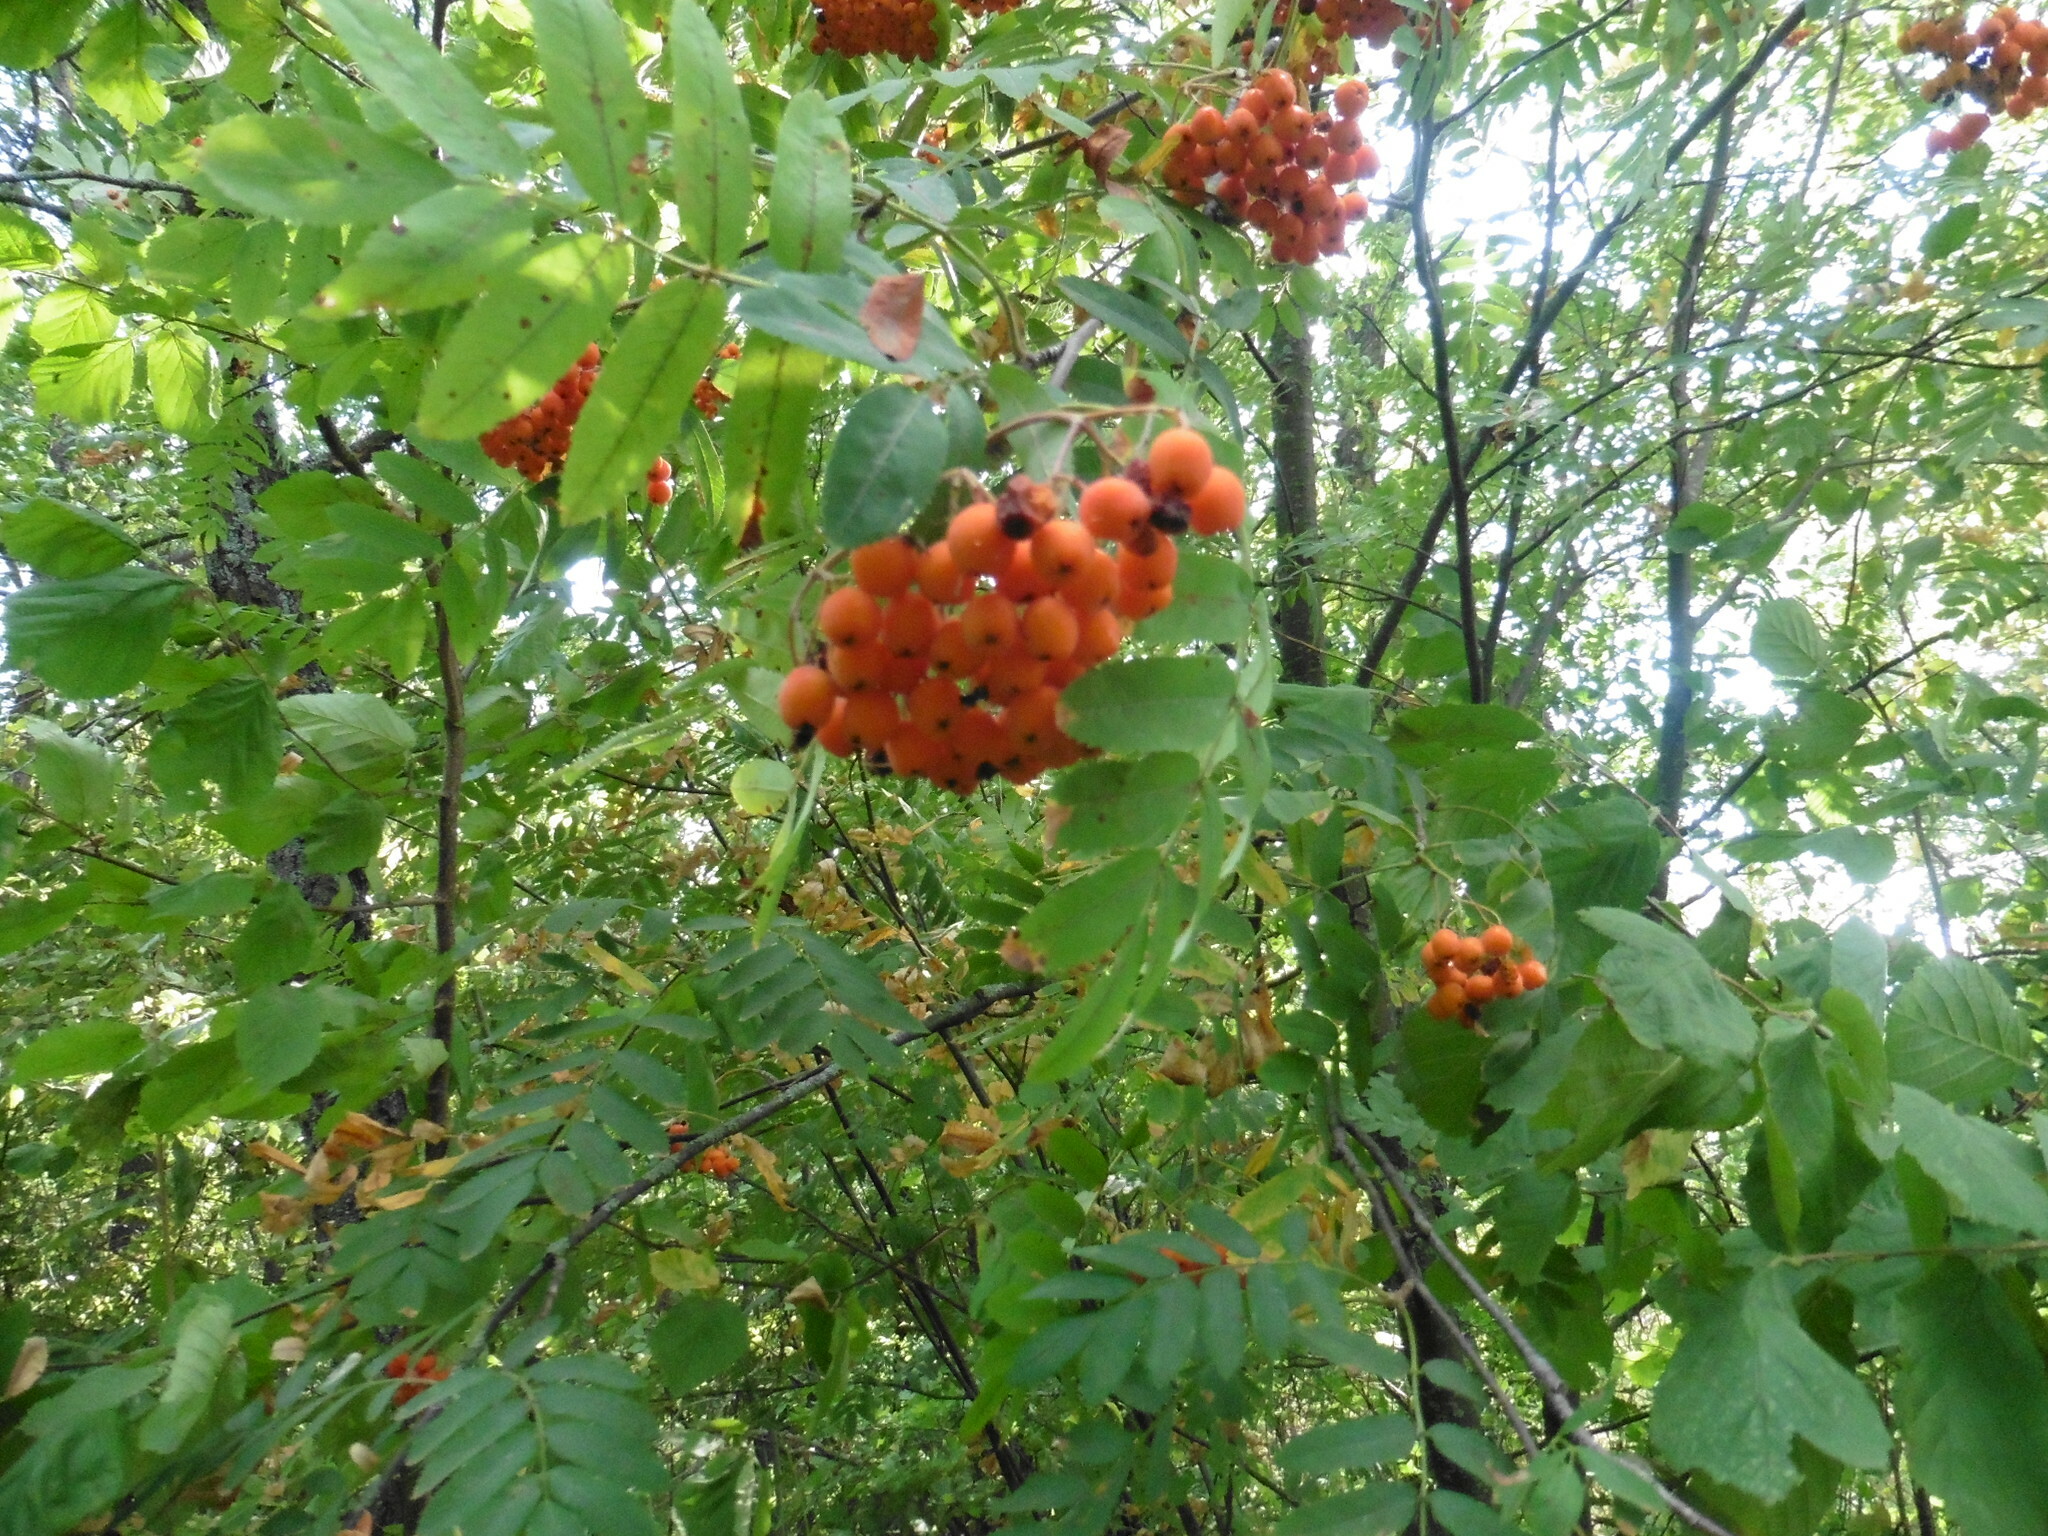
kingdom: Plantae
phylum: Tracheophyta
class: Magnoliopsida
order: Rosales
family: Rosaceae
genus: Sorbus
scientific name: Sorbus aucuparia
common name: Rowan
